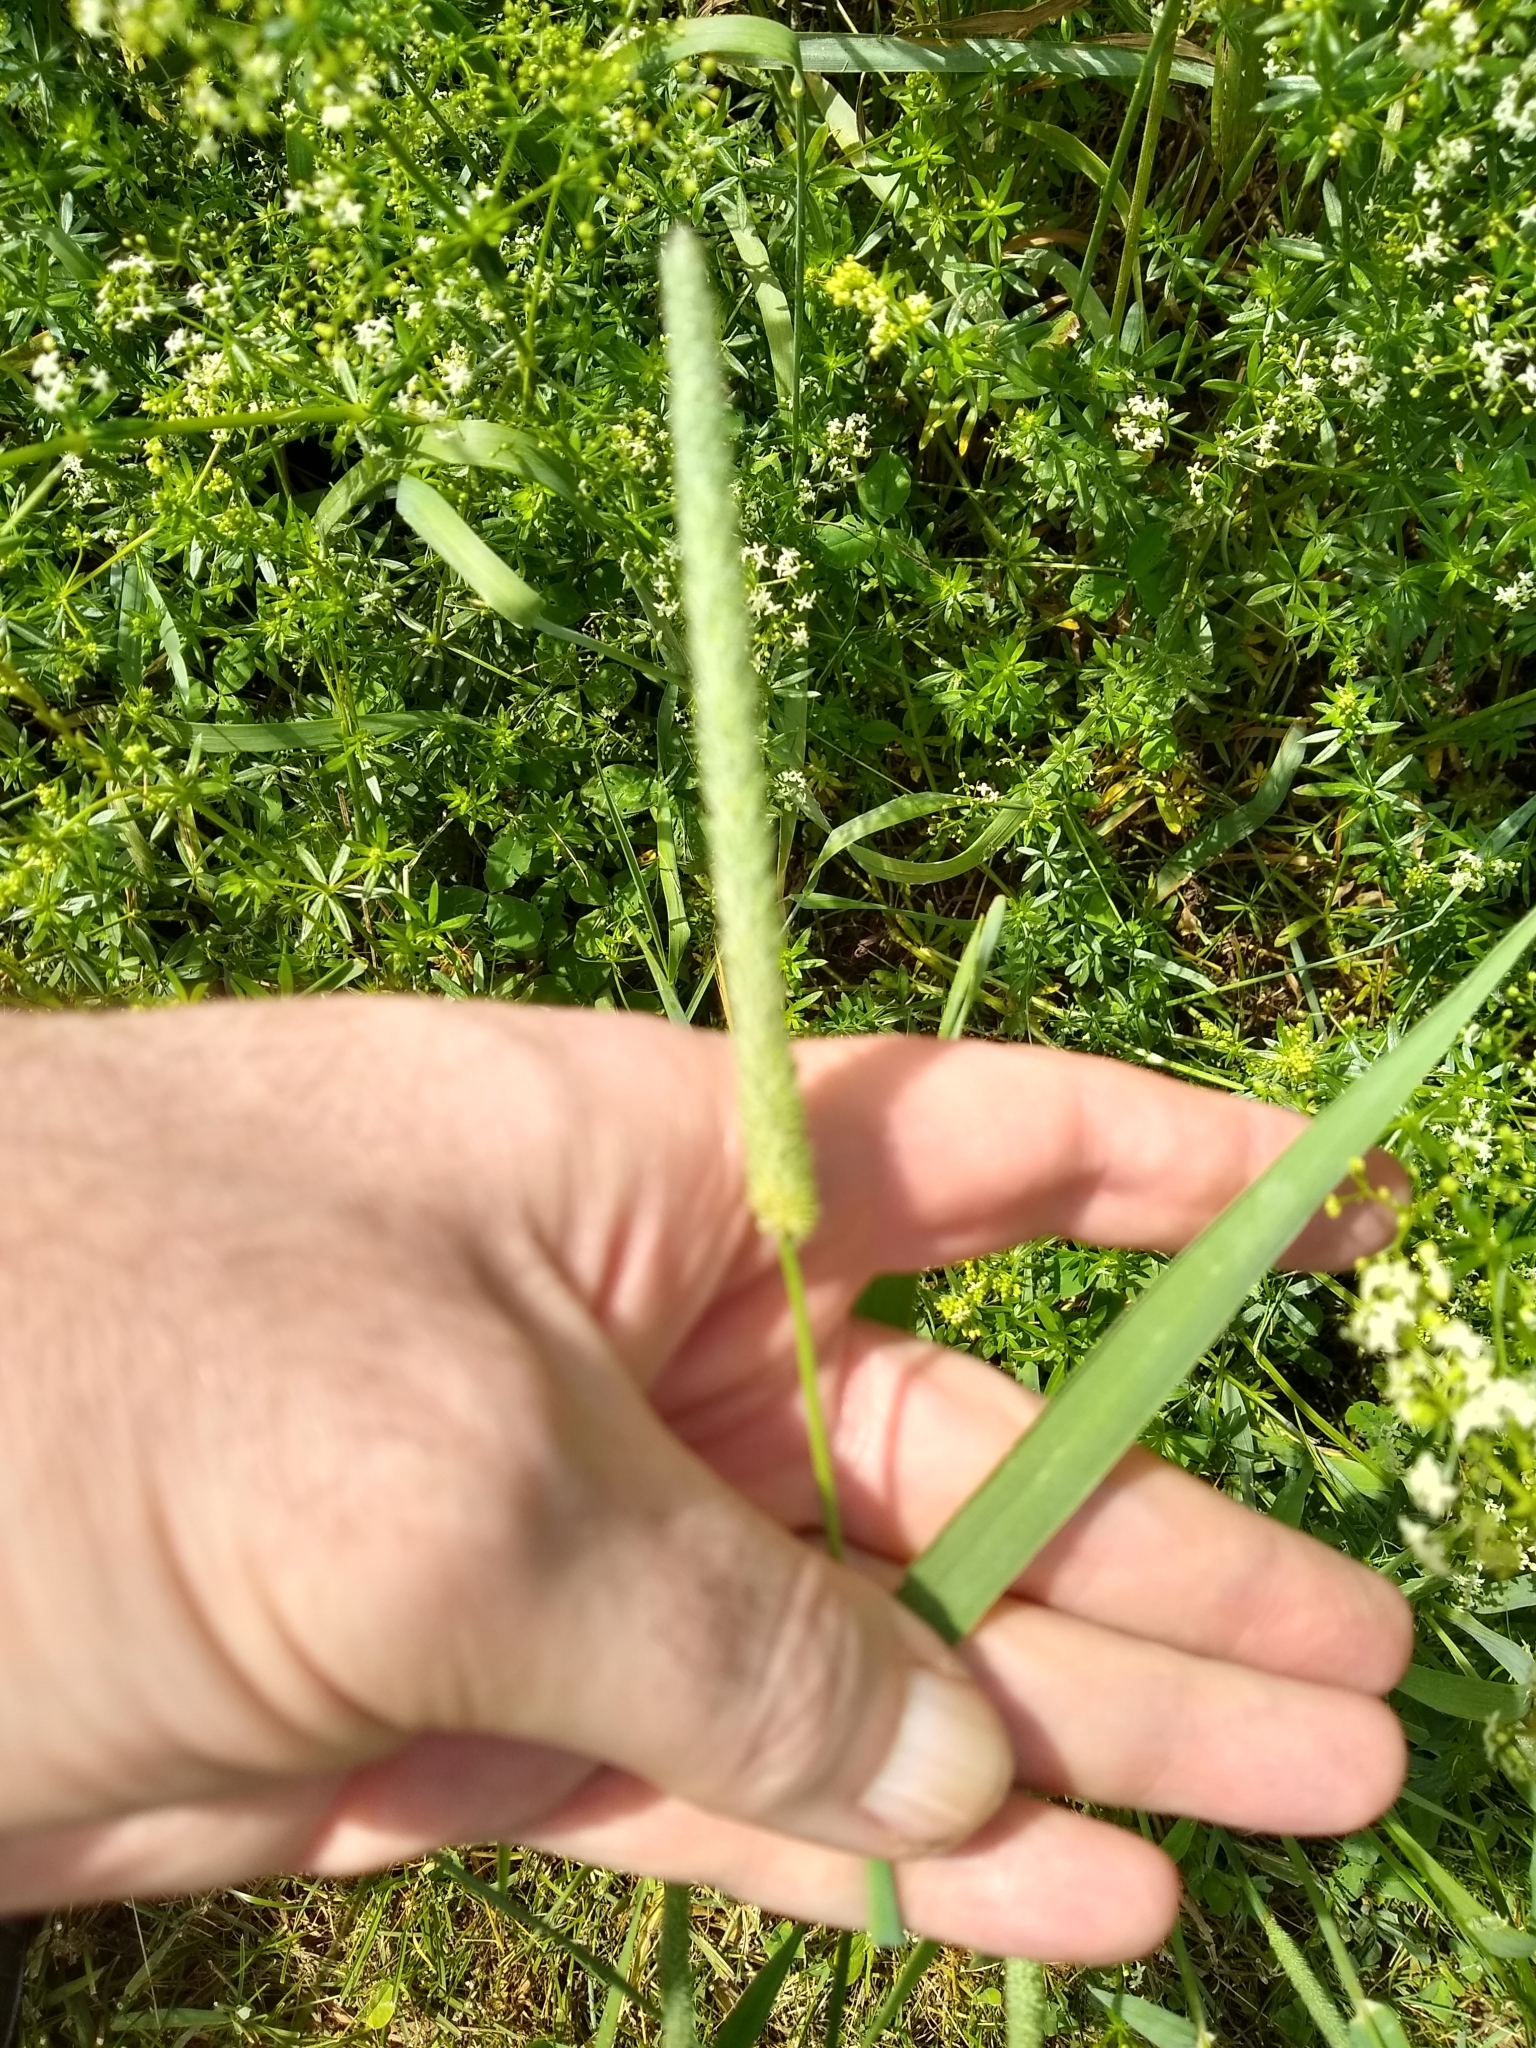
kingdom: Plantae
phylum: Tracheophyta
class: Liliopsida
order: Poales
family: Poaceae
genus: Phleum
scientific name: Phleum pratense
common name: Timothy grass
